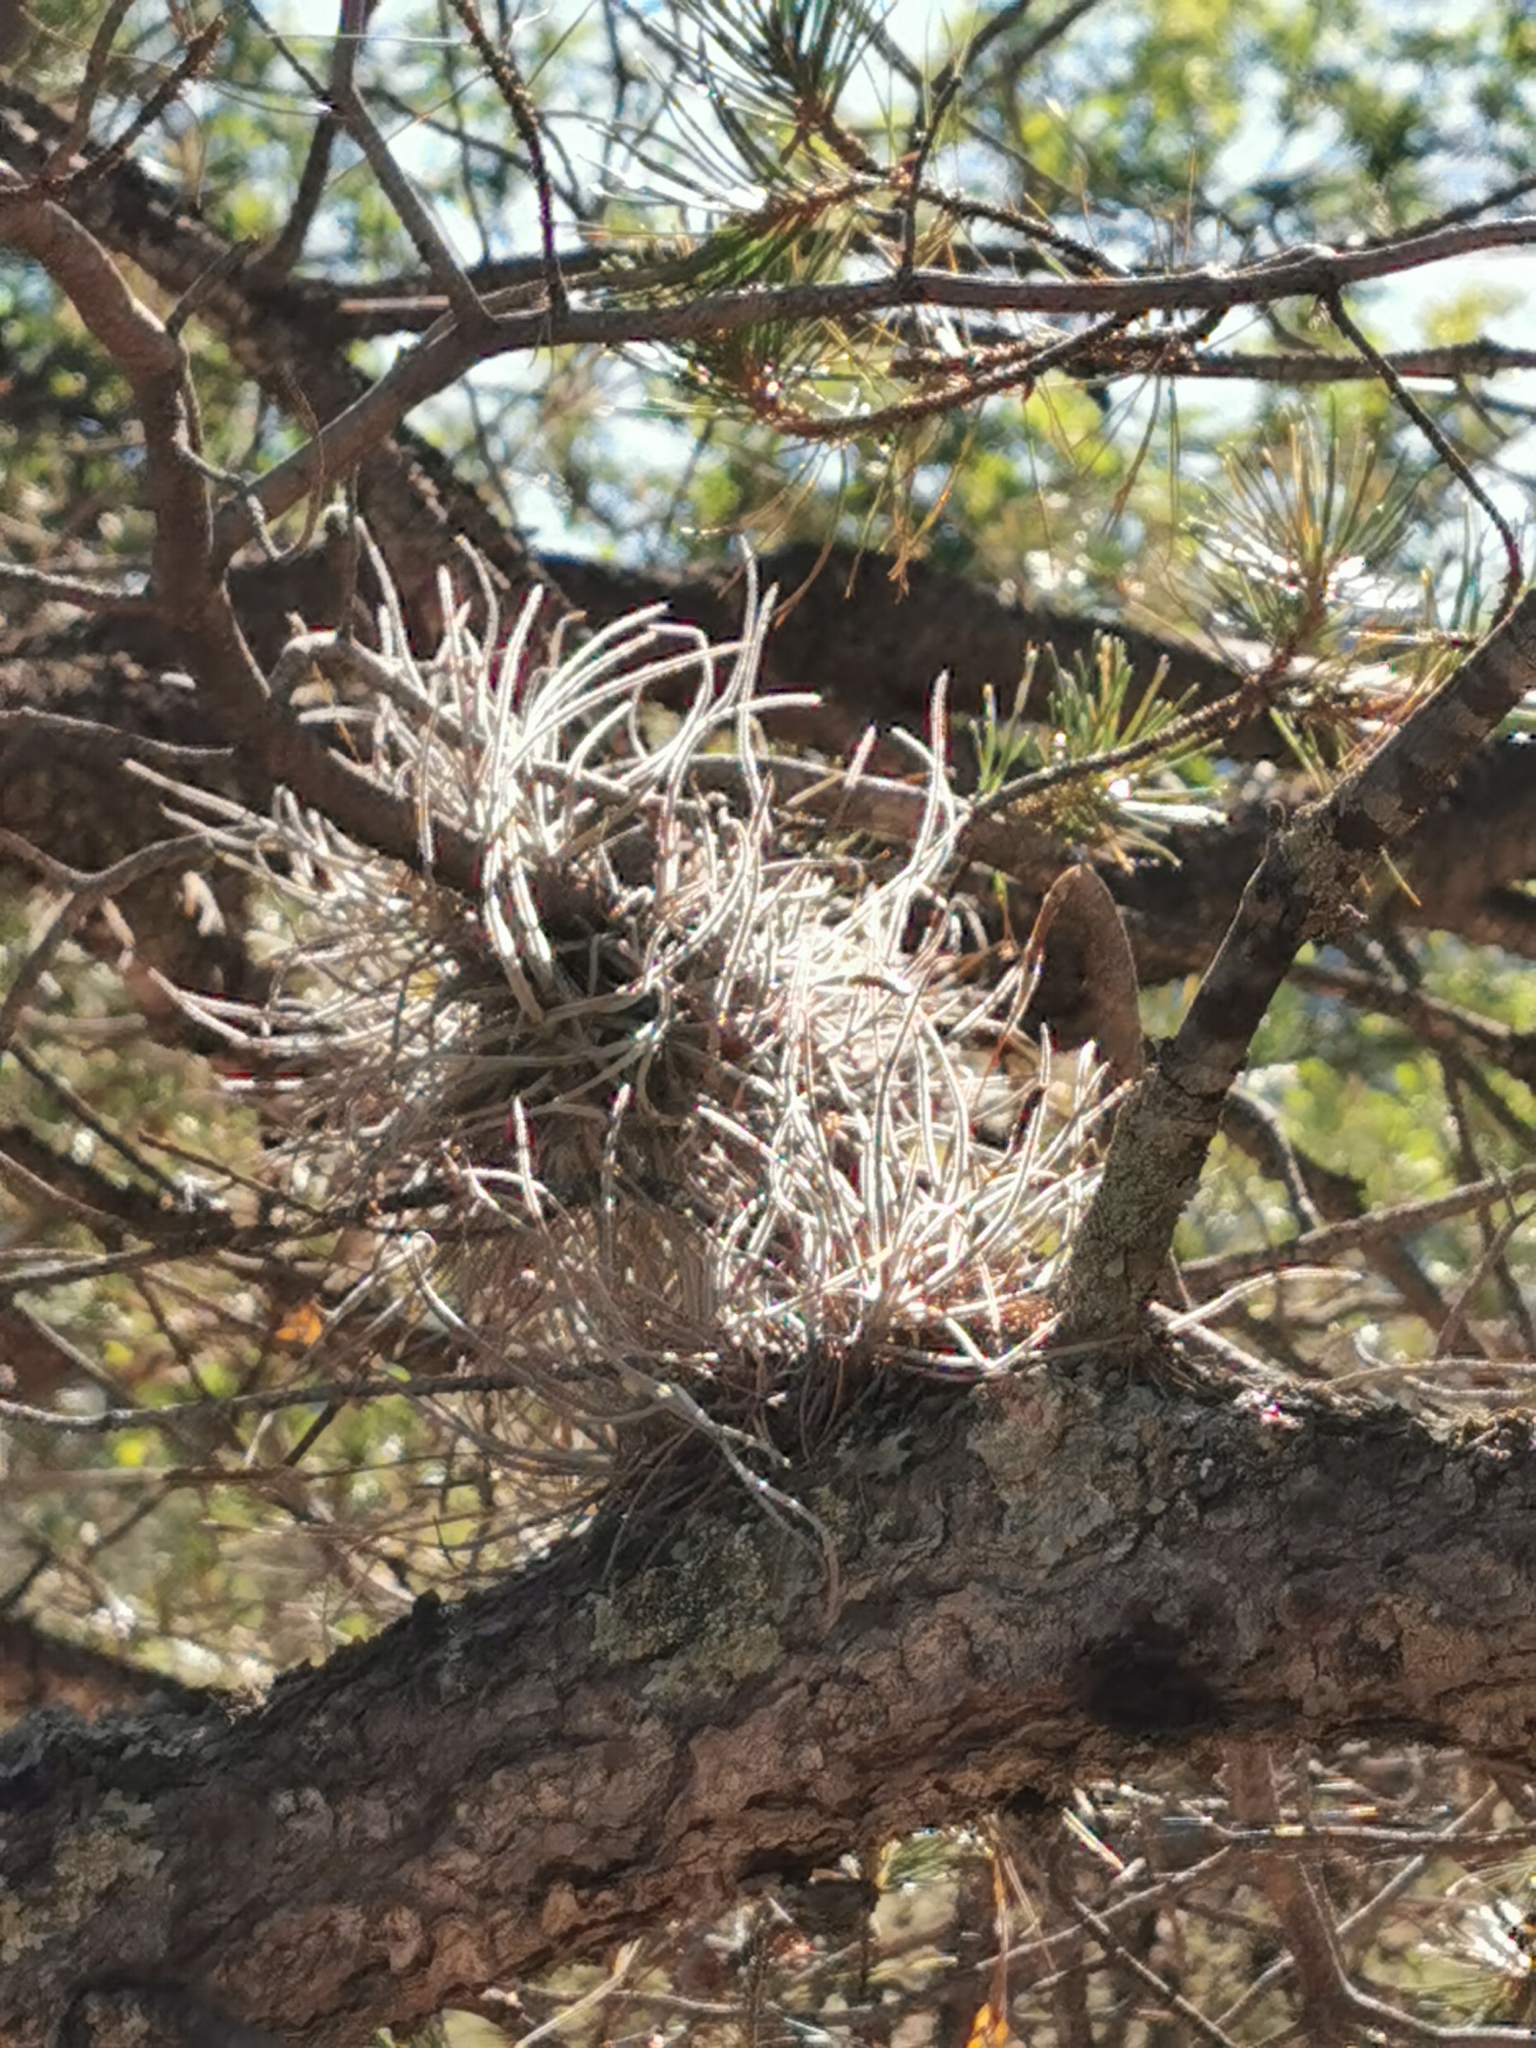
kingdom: Plantae
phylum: Tracheophyta
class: Liliopsida
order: Poales
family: Bromeliaceae
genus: Tillandsia
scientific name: Tillandsia recurvata
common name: Small ballmoss
